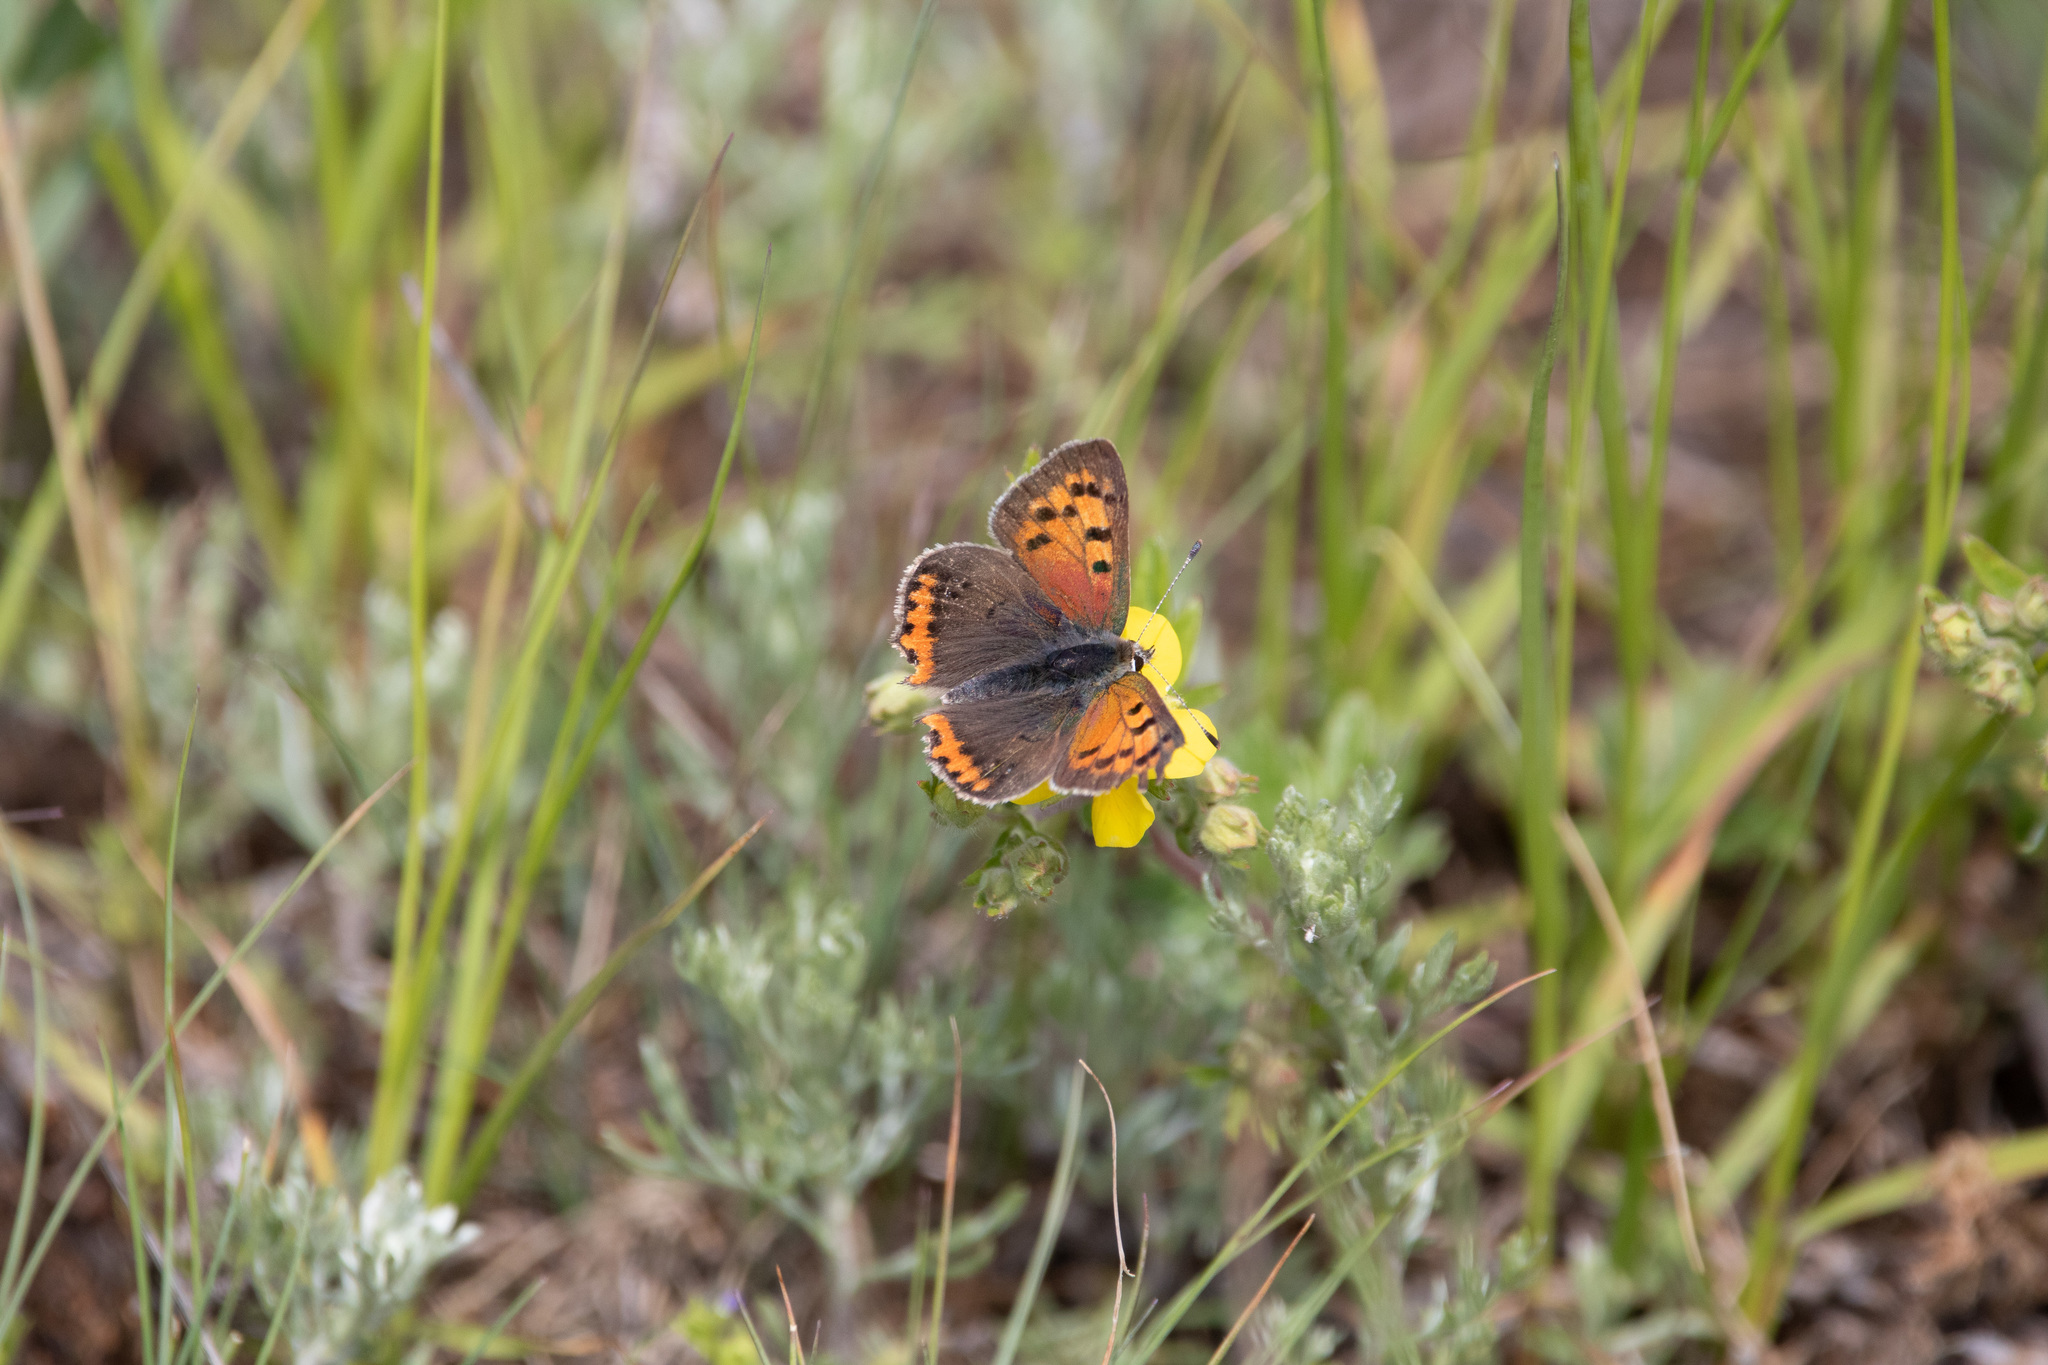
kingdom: Animalia
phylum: Arthropoda
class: Insecta
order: Lepidoptera
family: Lycaenidae
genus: Lycaena
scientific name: Lycaena phlaeas
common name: Small copper
